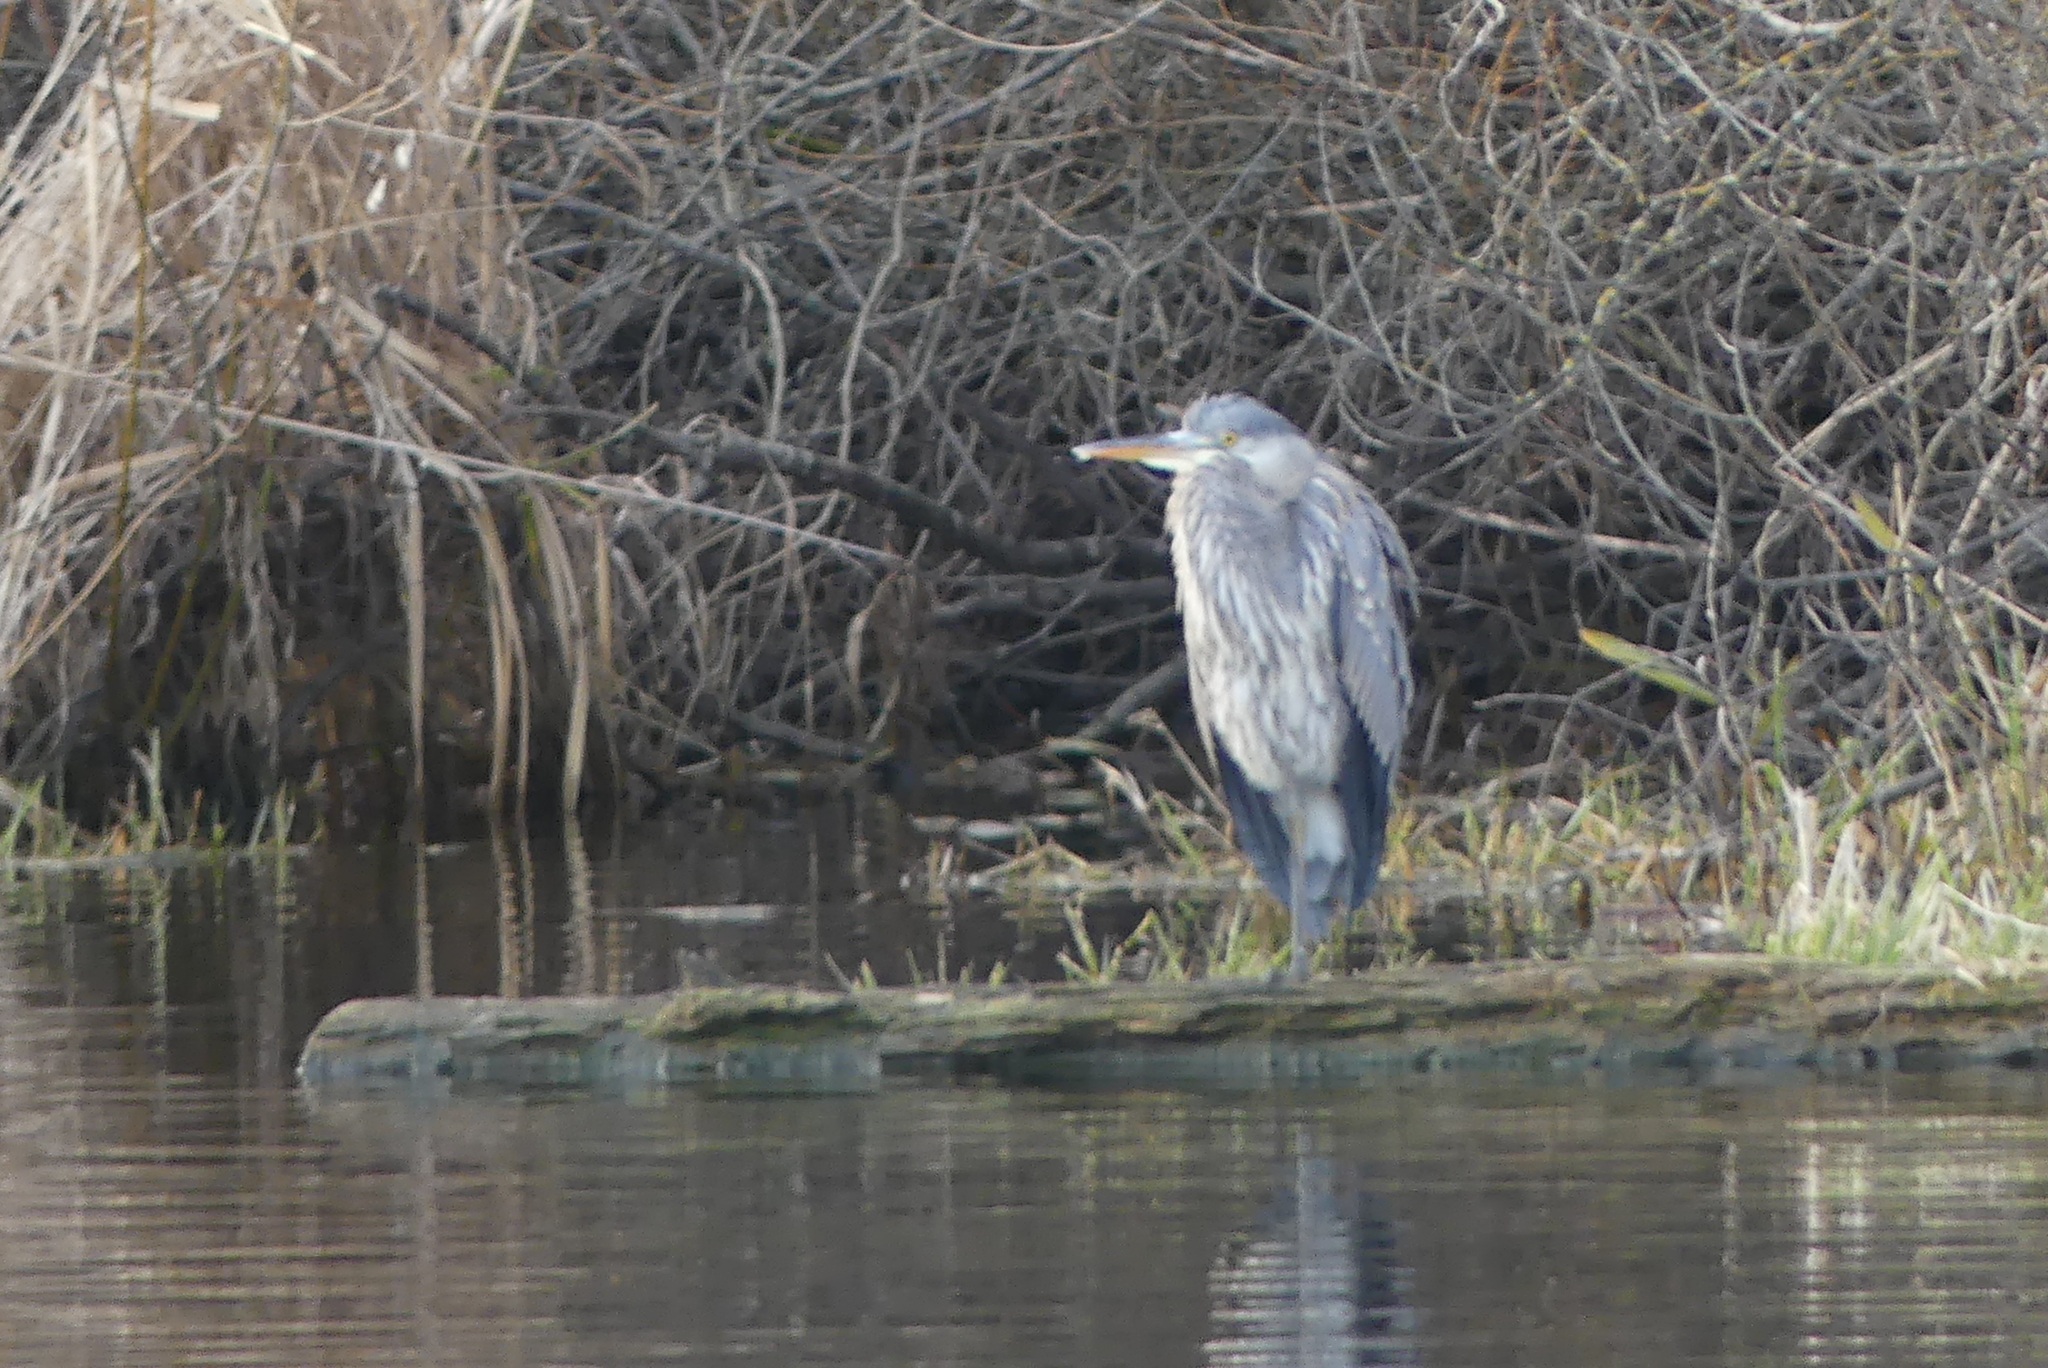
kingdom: Animalia
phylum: Chordata
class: Aves
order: Pelecaniformes
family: Ardeidae
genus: Ardea
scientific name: Ardea herodias
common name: Great blue heron
